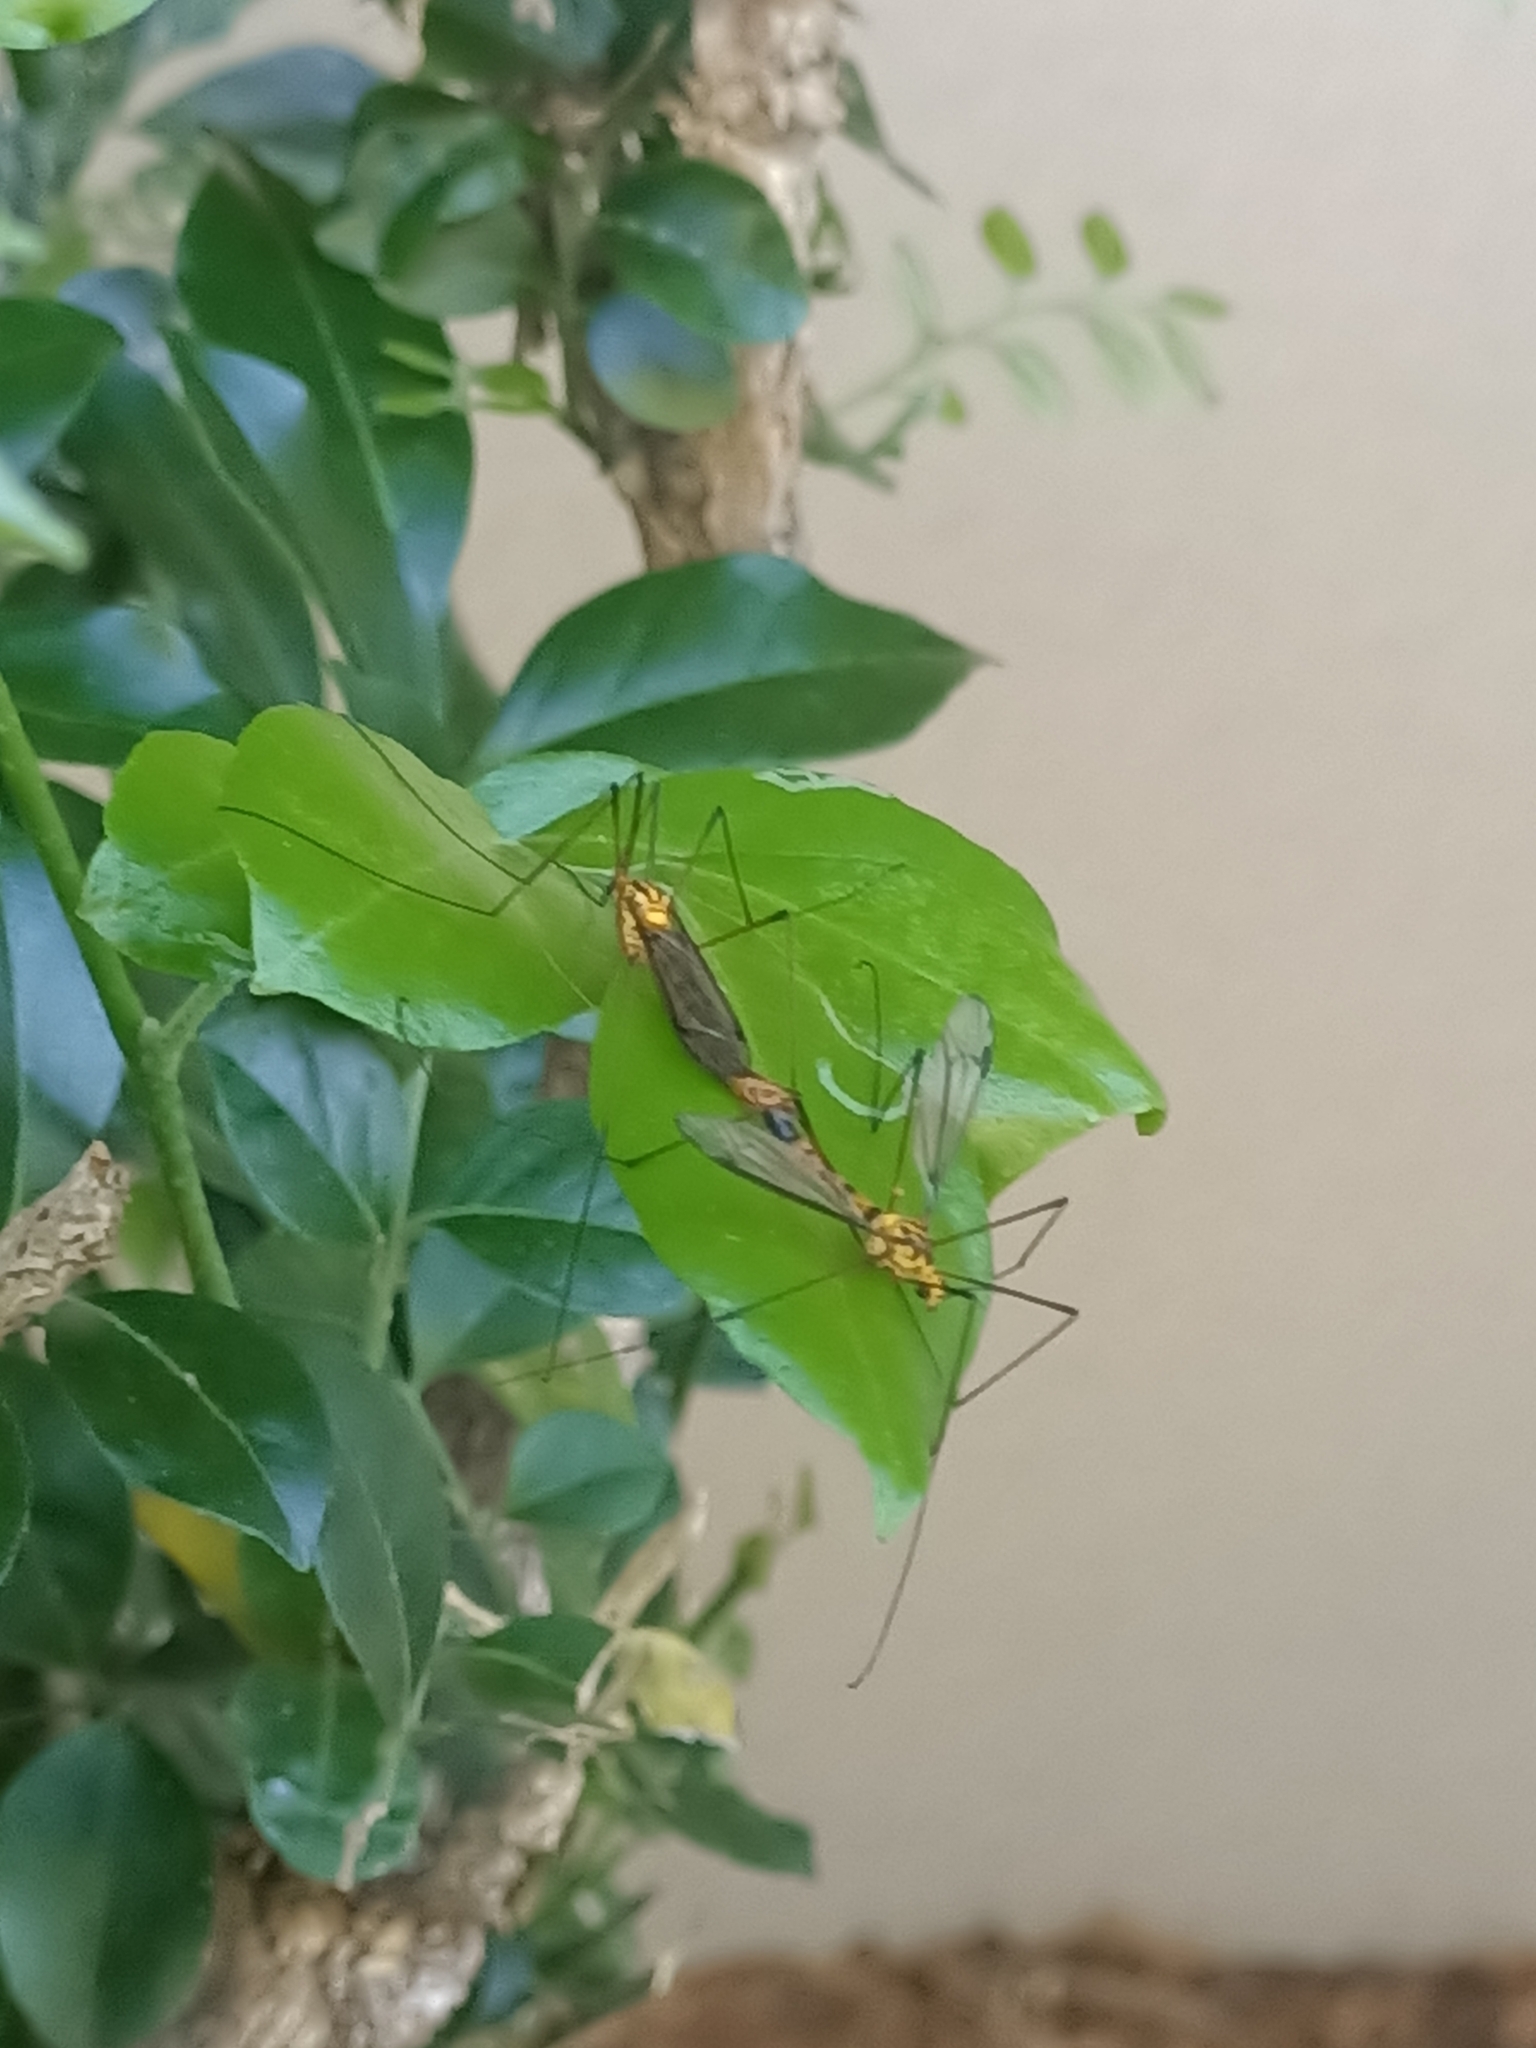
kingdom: Animalia
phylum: Arthropoda
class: Insecta
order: Diptera
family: Tipulidae
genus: Nephrotoma
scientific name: Nephrotoma australasiae
